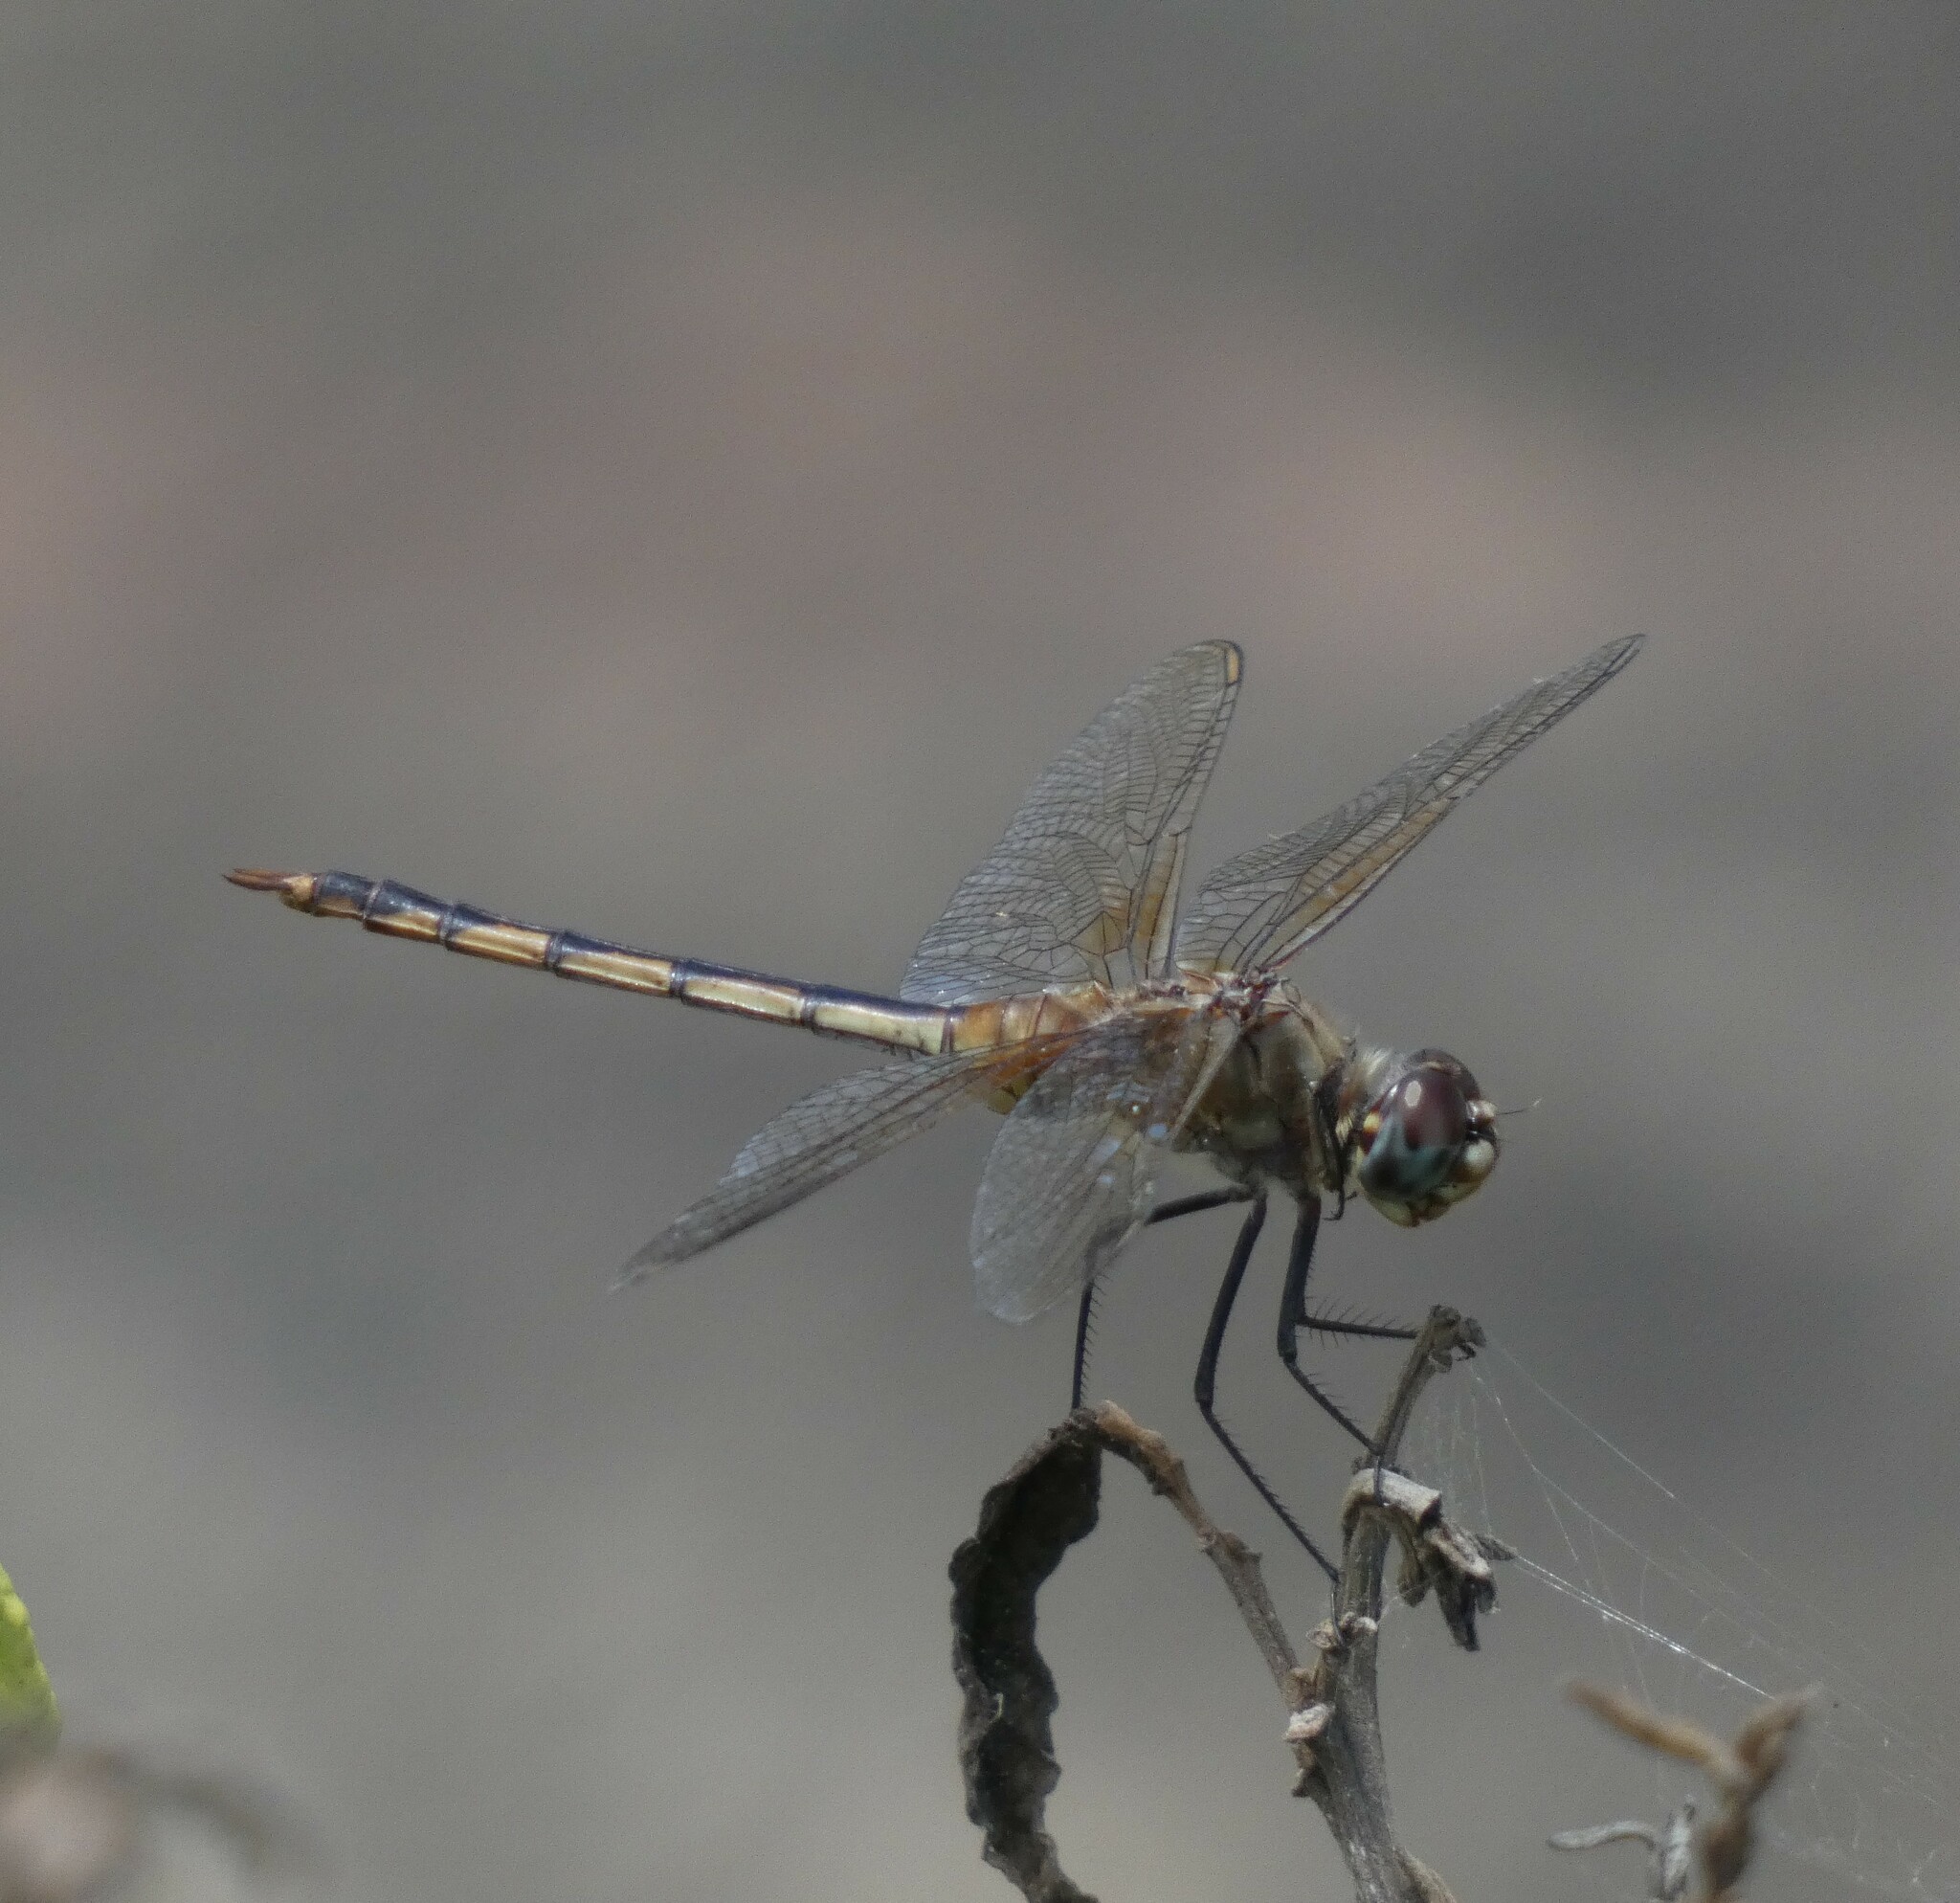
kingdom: Animalia
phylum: Arthropoda
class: Insecta
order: Odonata
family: Libellulidae
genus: Brachymesia
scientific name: Brachymesia herbida
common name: Tawny pennant
